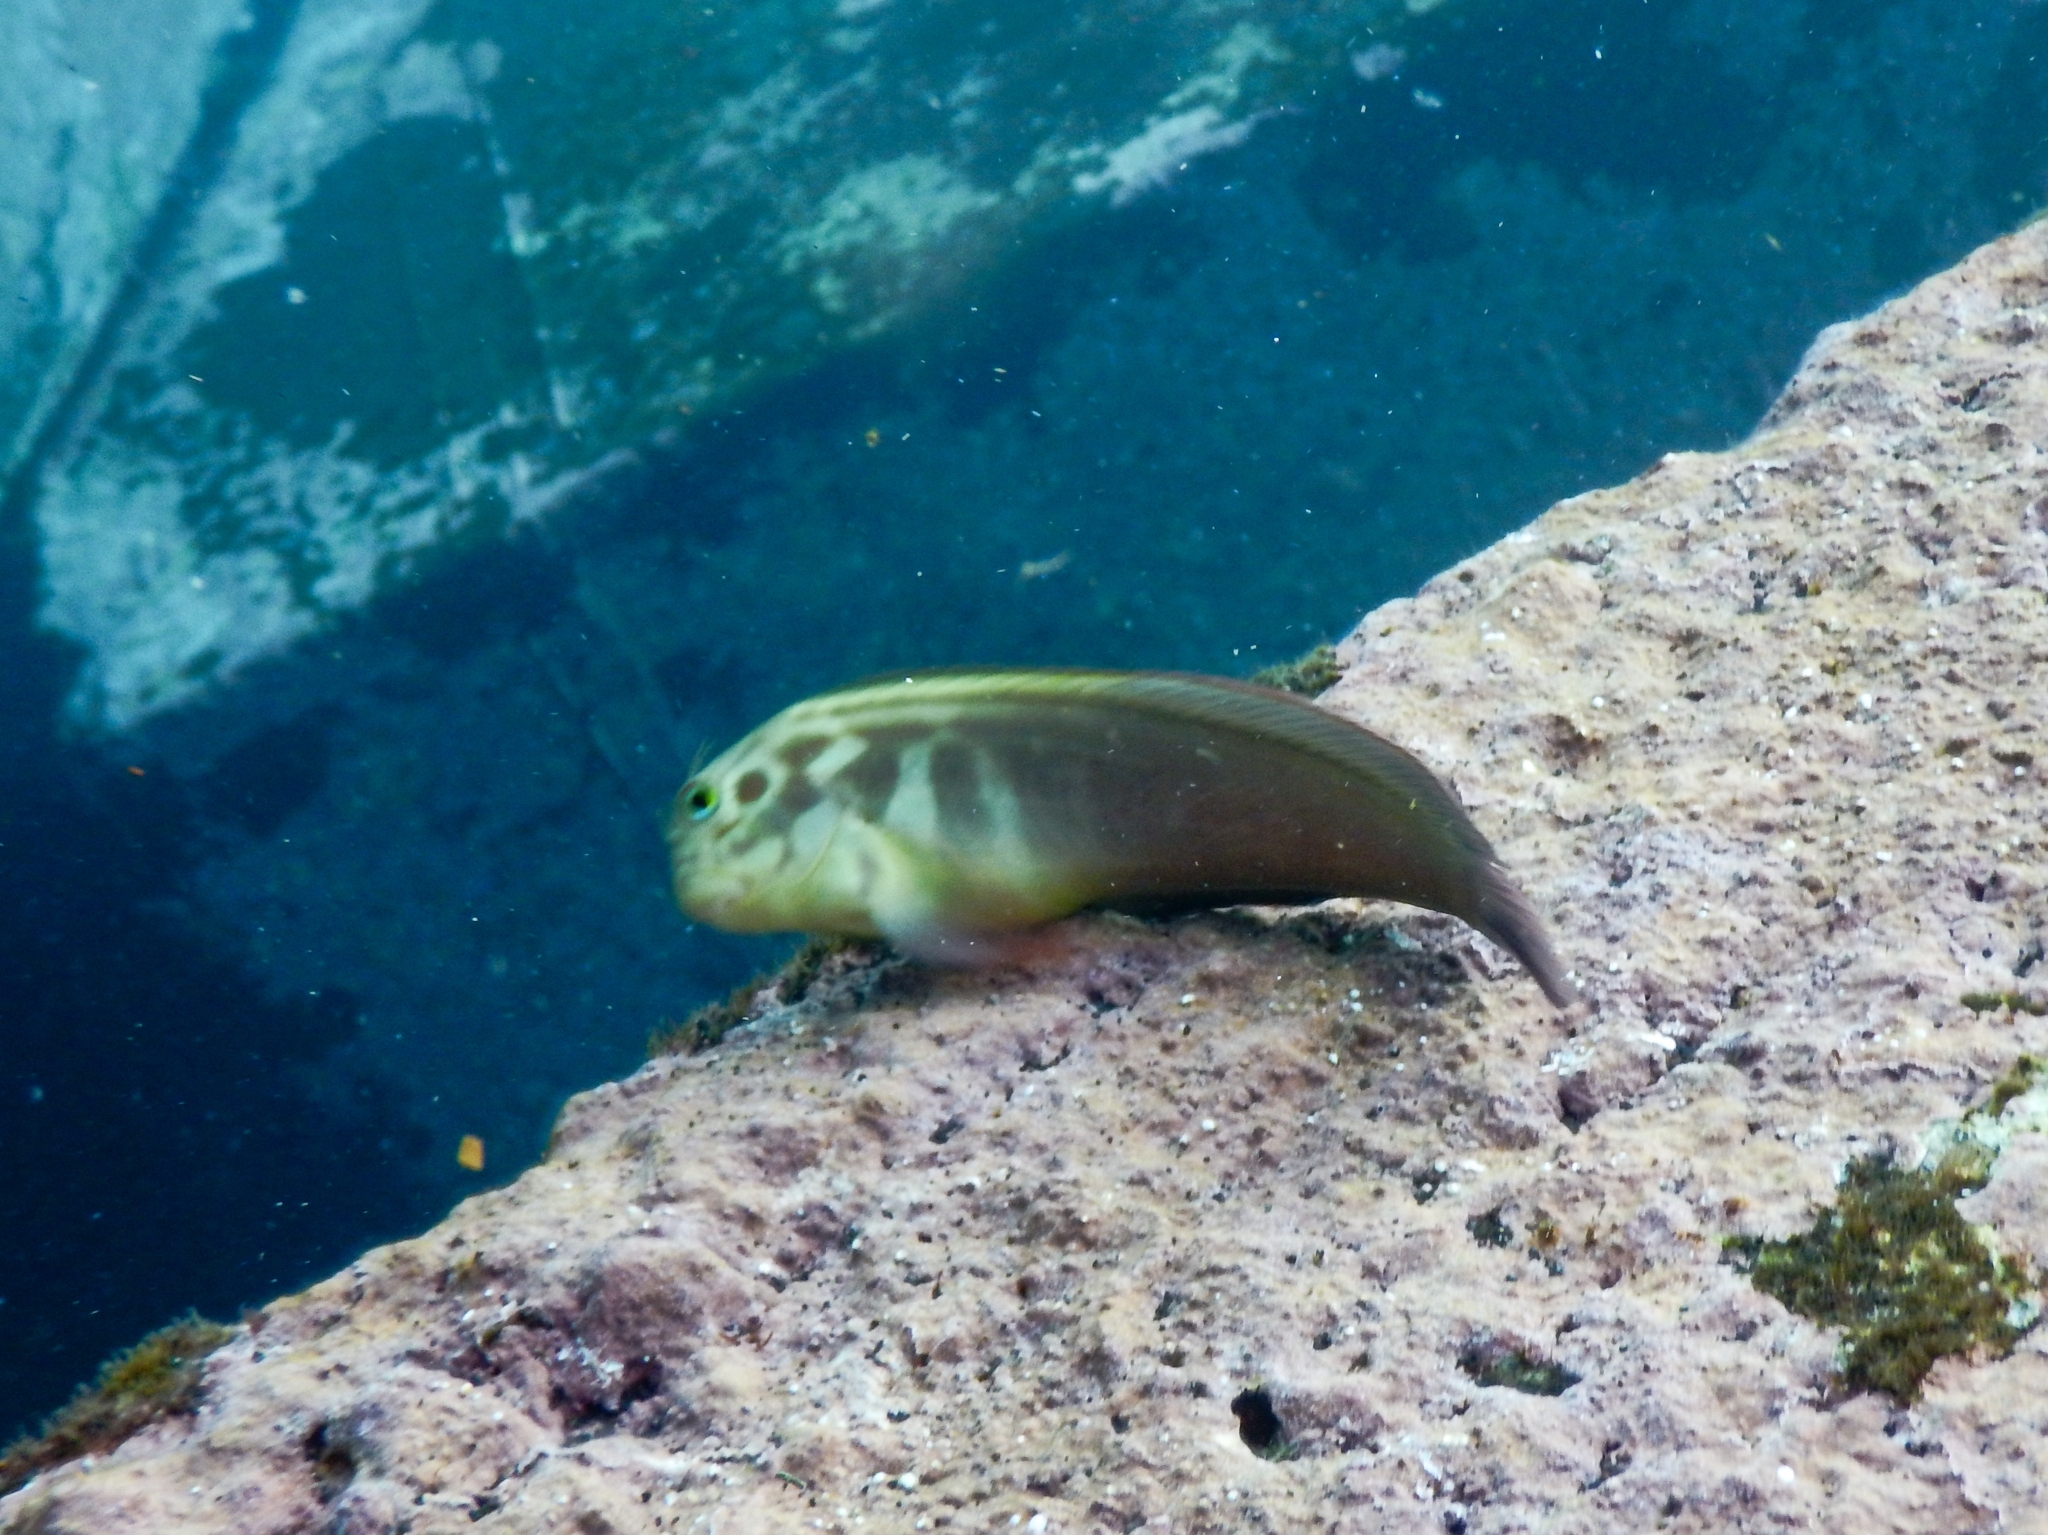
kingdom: Animalia
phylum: Chordata
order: Perciformes
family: Blenniidae
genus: Ophioblennius
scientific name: Ophioblennius atlanticus
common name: Redlip blenny
